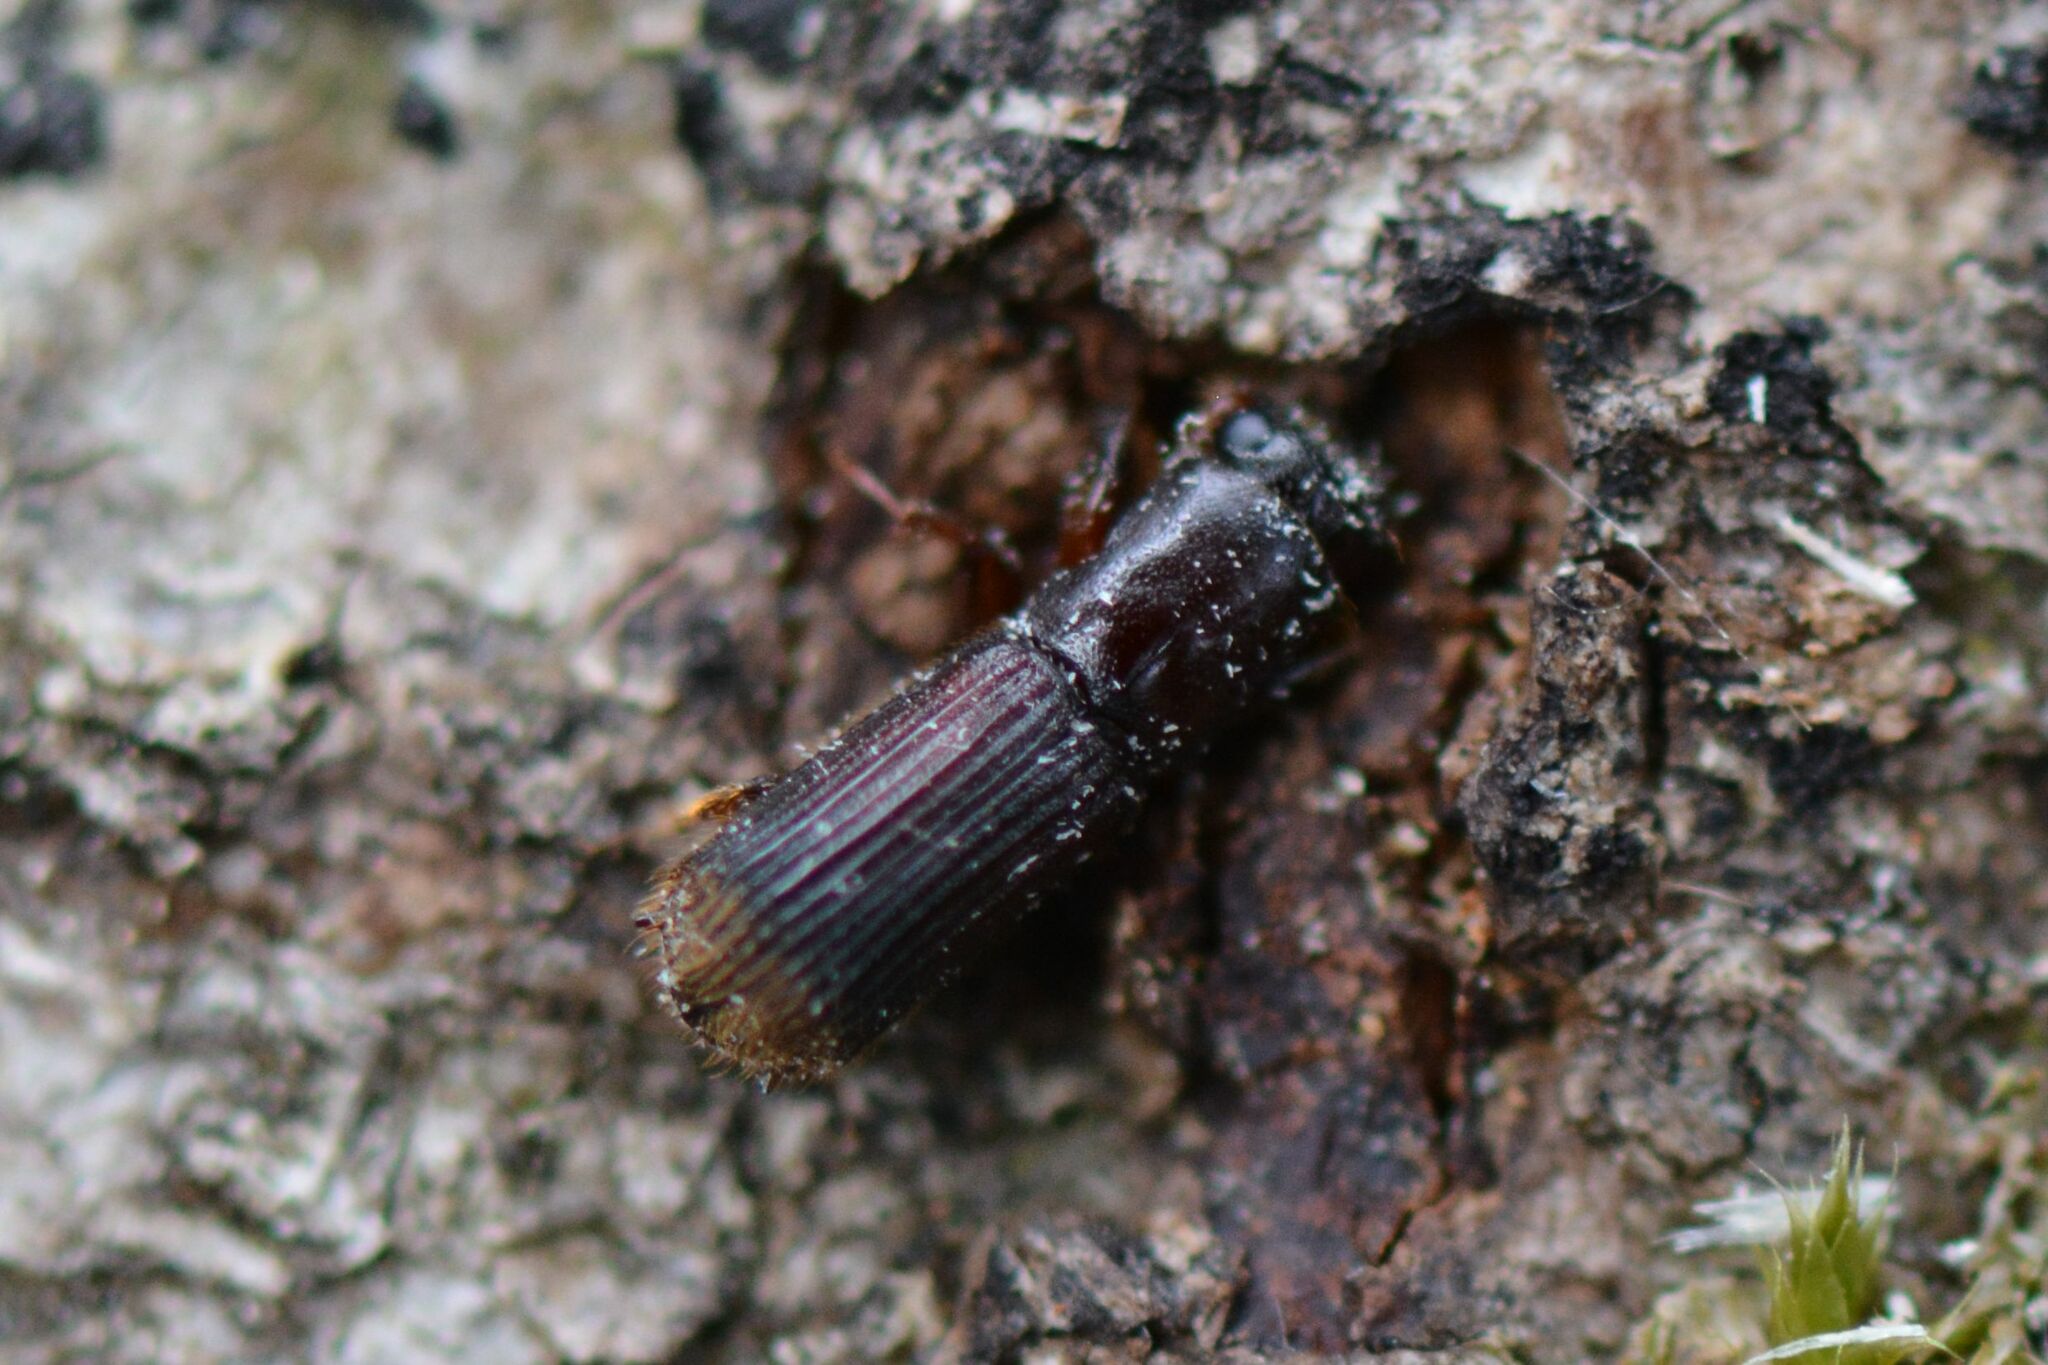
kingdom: Animalia
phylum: Arthropoda
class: Insecta
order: Coleoptera
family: Curculionidae
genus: Platypus
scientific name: Platypus cylindrus
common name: Pinhole borer
